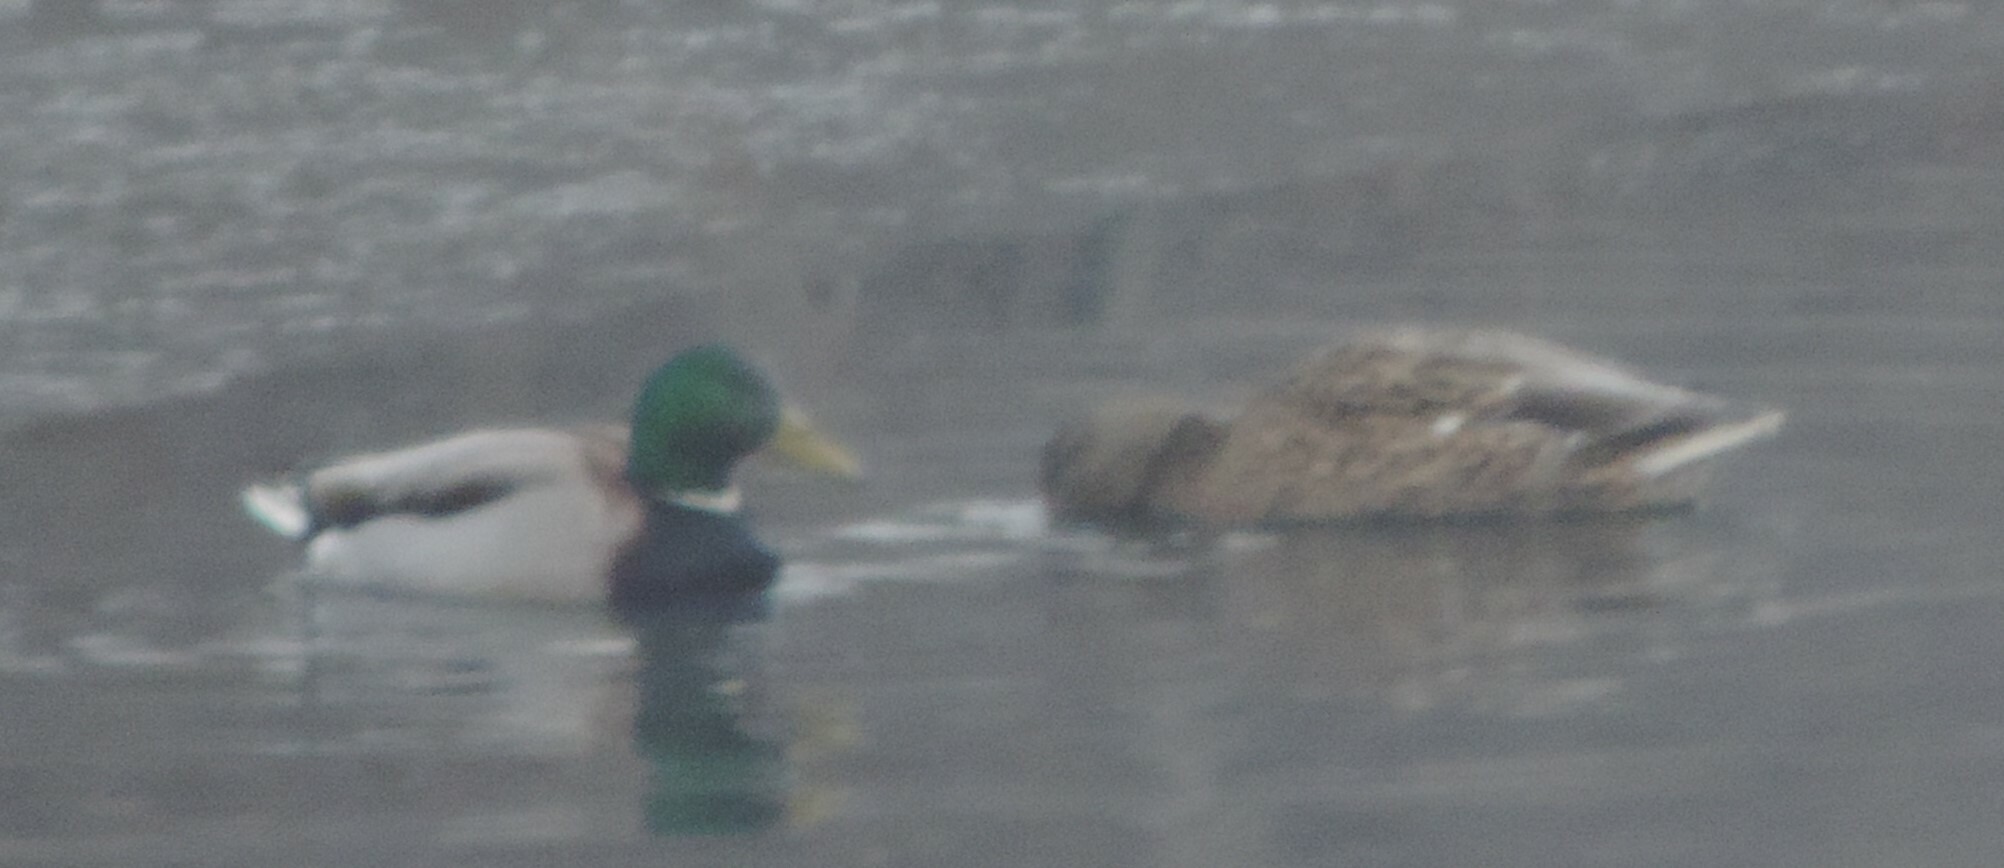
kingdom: Animalia
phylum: Chordata
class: Aves
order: Anseriformes
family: Anatidae
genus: Anas
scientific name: Anas platyrhynchos
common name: Mallard
